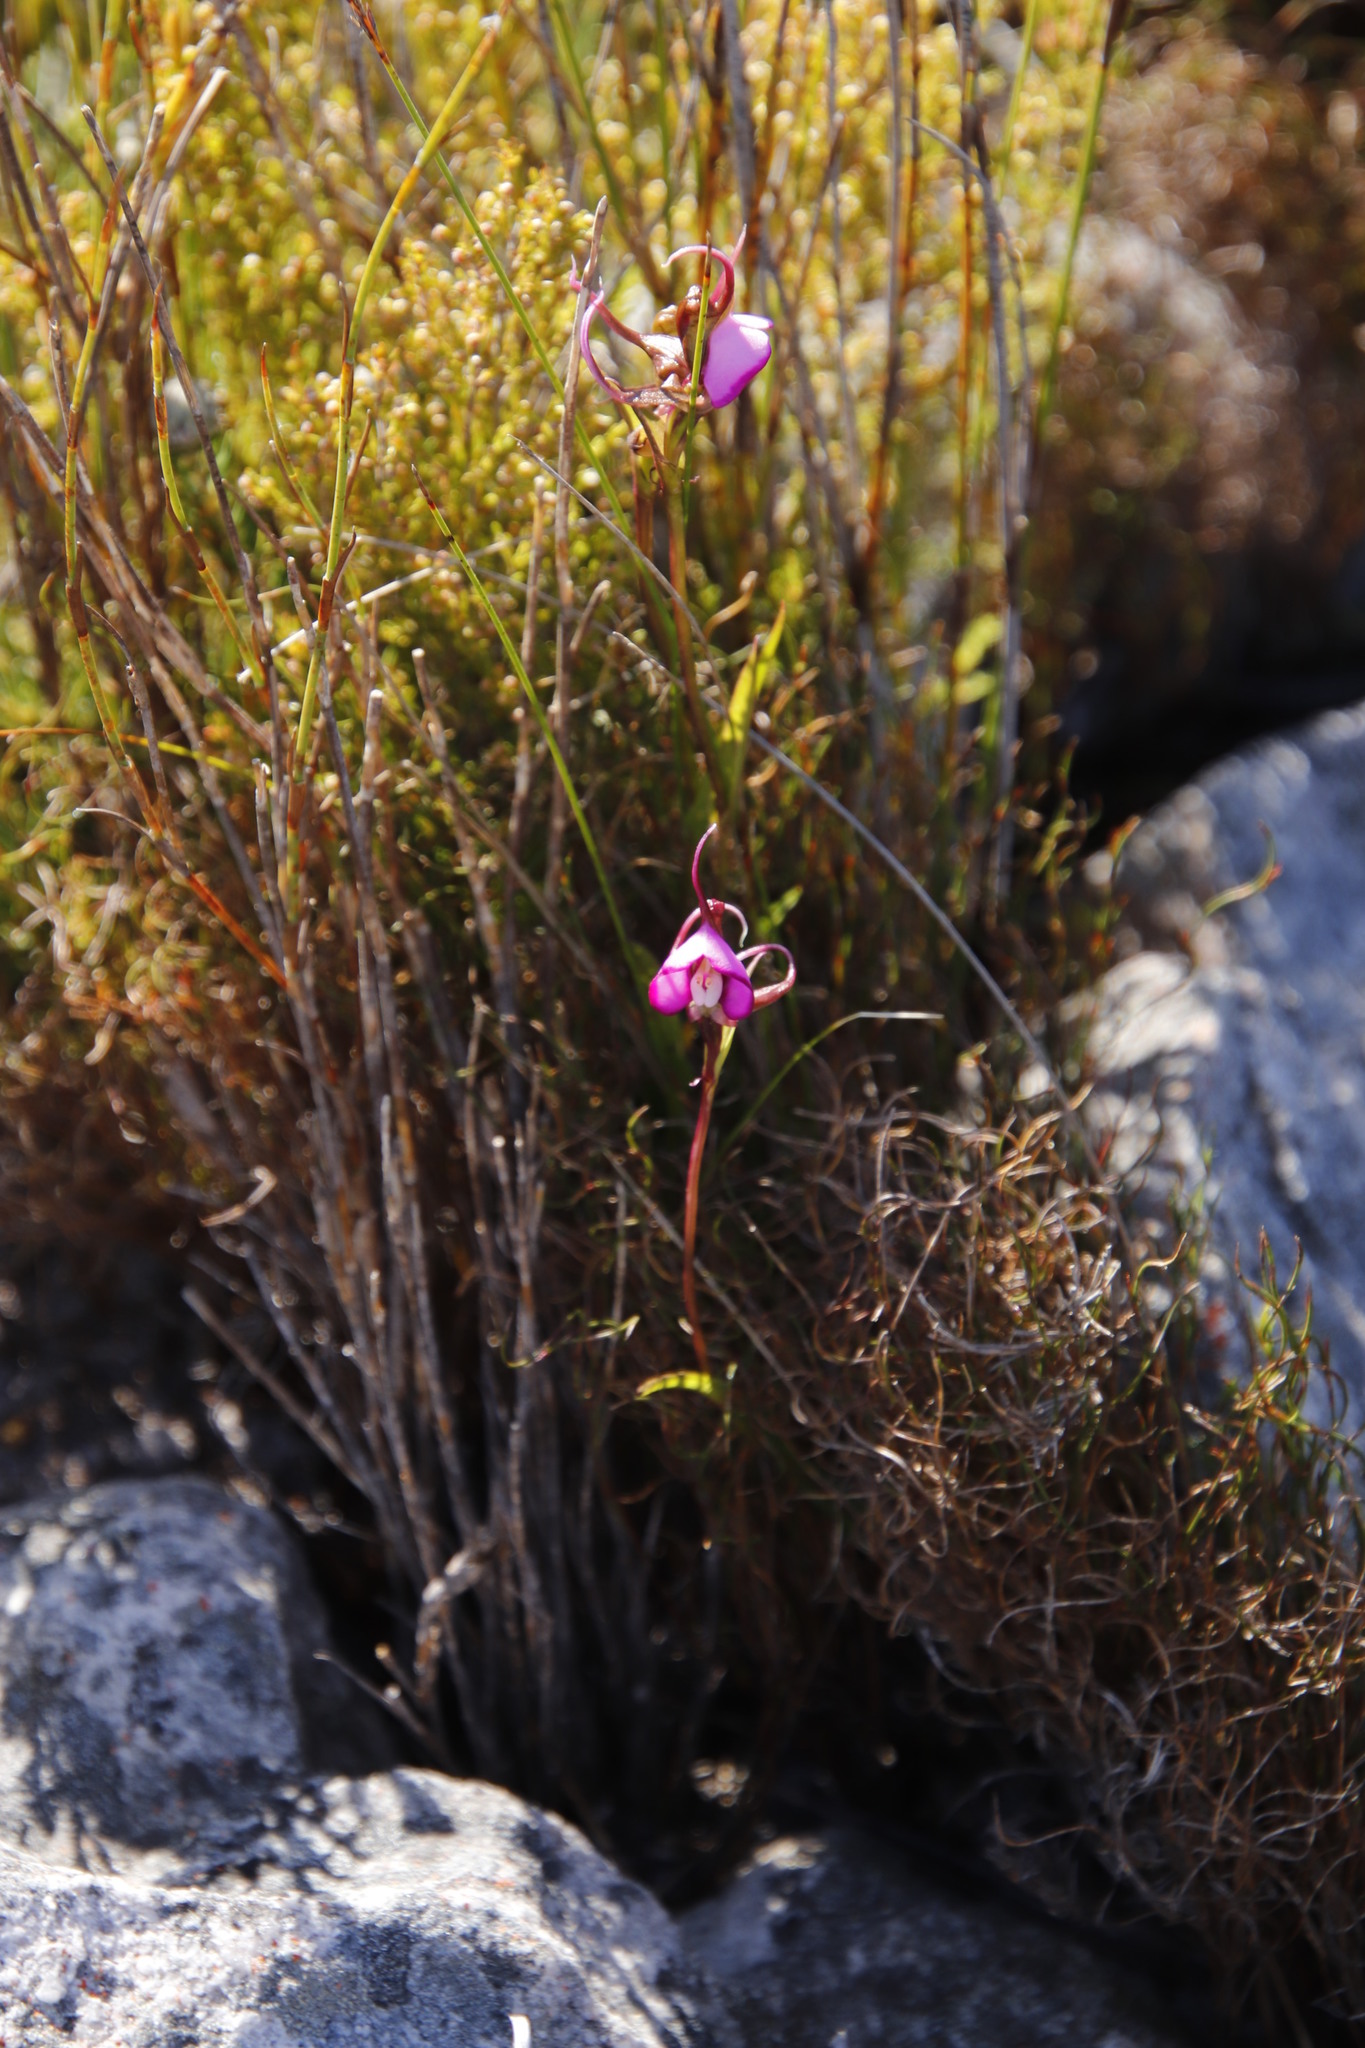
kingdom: Plantae
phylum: Tracheophyta
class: Liliopsida
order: Asparagales
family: Orchidaceae
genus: Disperis
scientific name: Disperis capensis
